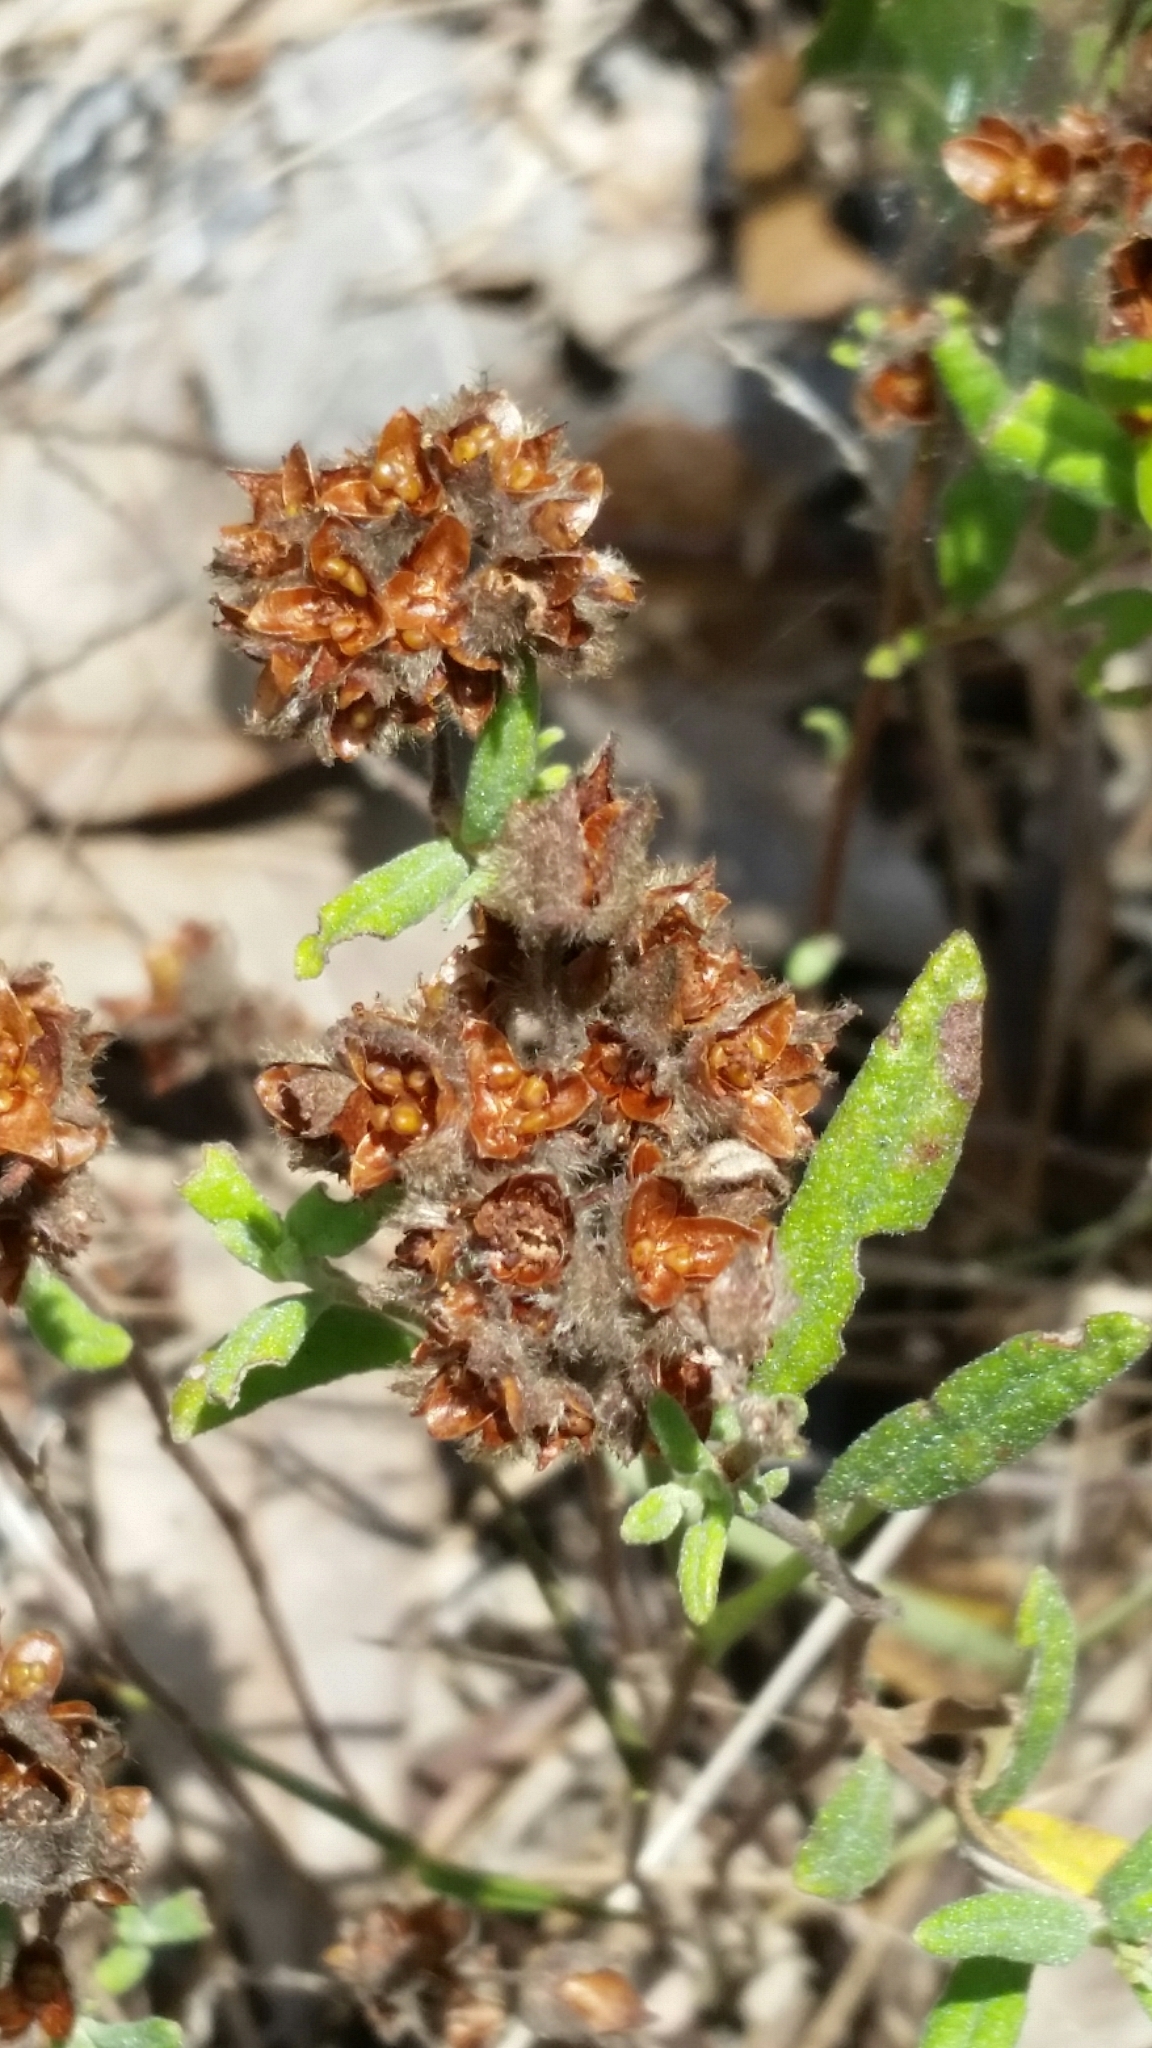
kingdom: Plantae
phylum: Tracheophyta
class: Magnoliopsida
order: Malvales
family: Cistaceae
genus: Crocanthemum
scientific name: Crocanthemum corymbosum
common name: Pinebarren sun-rose
